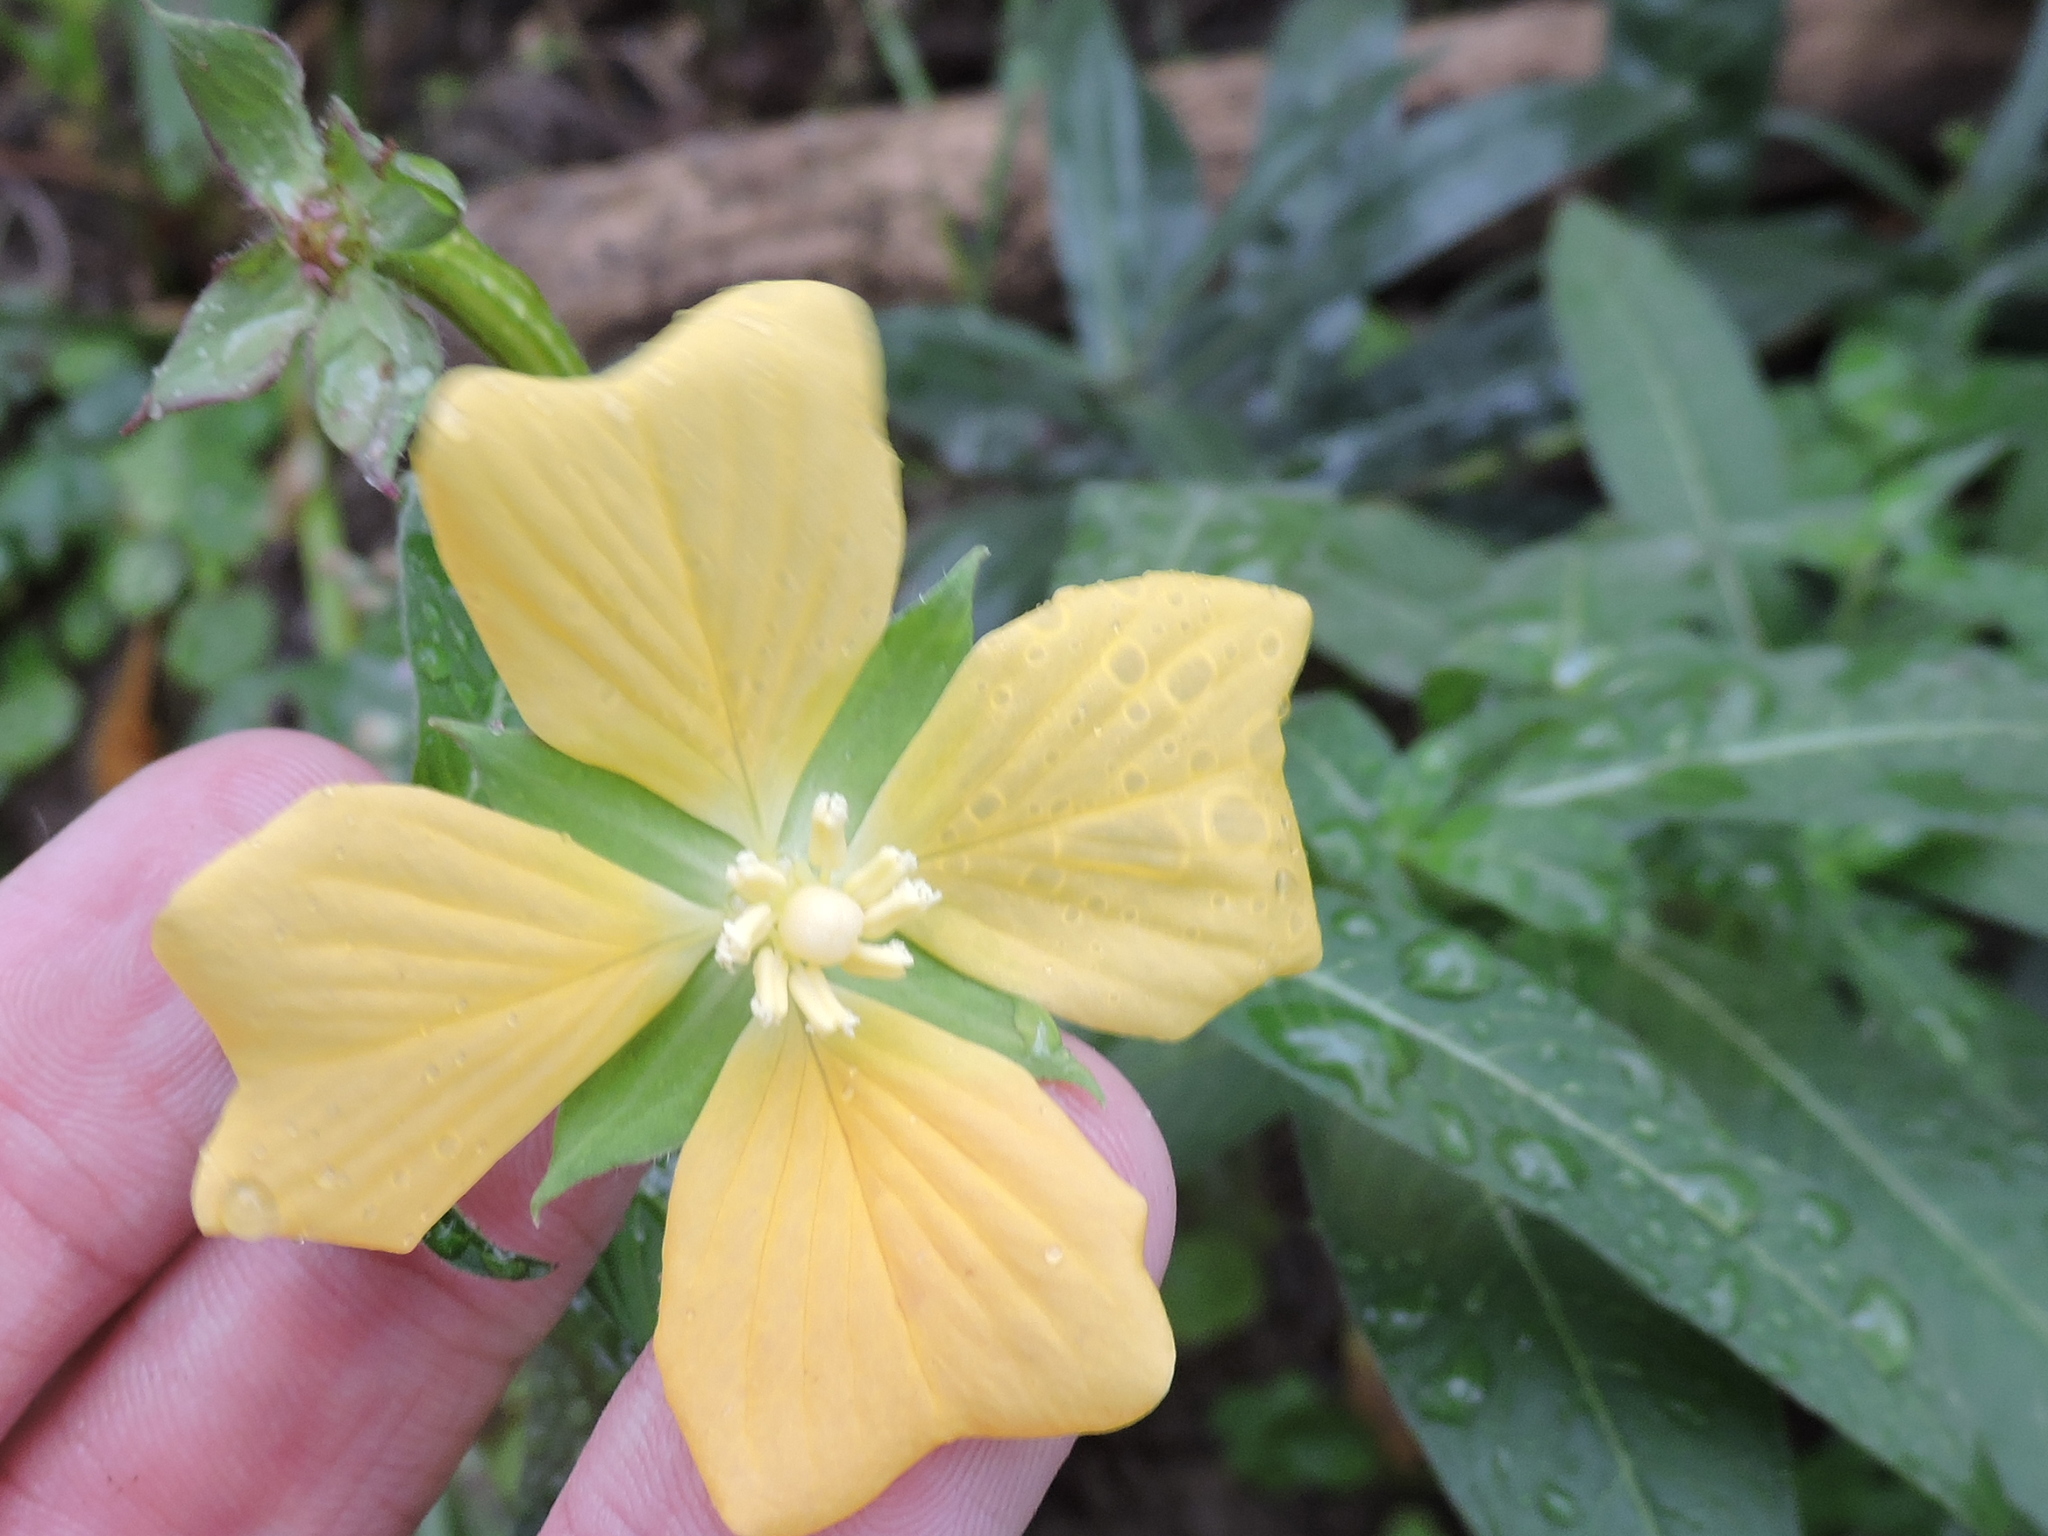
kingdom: Plantae
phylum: Tracheophyta
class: Magnoliopsida
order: Myrtales
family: Onagraceae
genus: Ludwigia
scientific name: Ludwigia octovalvis
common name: Water-primrose
